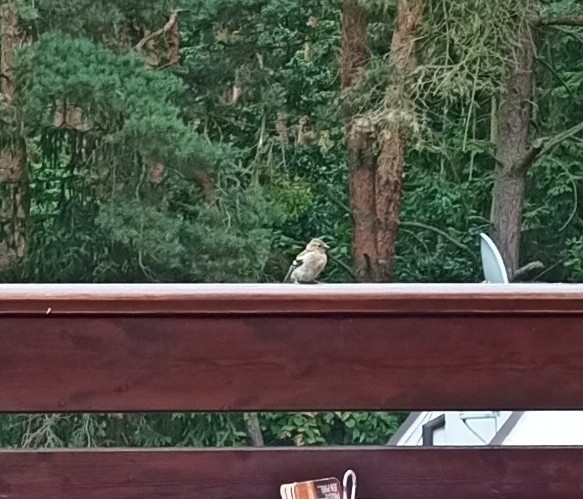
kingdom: Animalia
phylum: Chordata
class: Aves
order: Passeriformes
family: Fringillidae
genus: Fringilla
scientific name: Fringilla coelebs
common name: Common chaffinch
